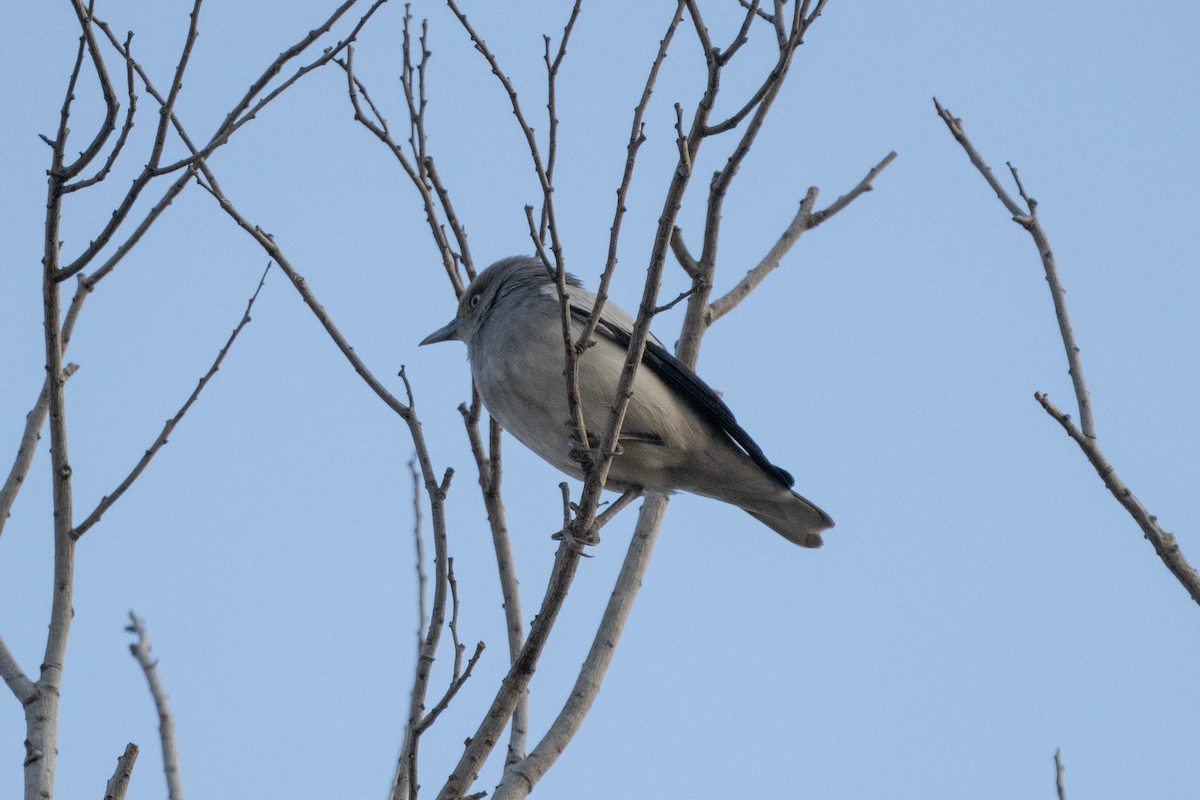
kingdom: Animalia
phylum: Chordata
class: Aves
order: Passeriformes
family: Sturnidae
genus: Sturnia
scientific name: Sturnia sinensis
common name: White-shouldered starling
